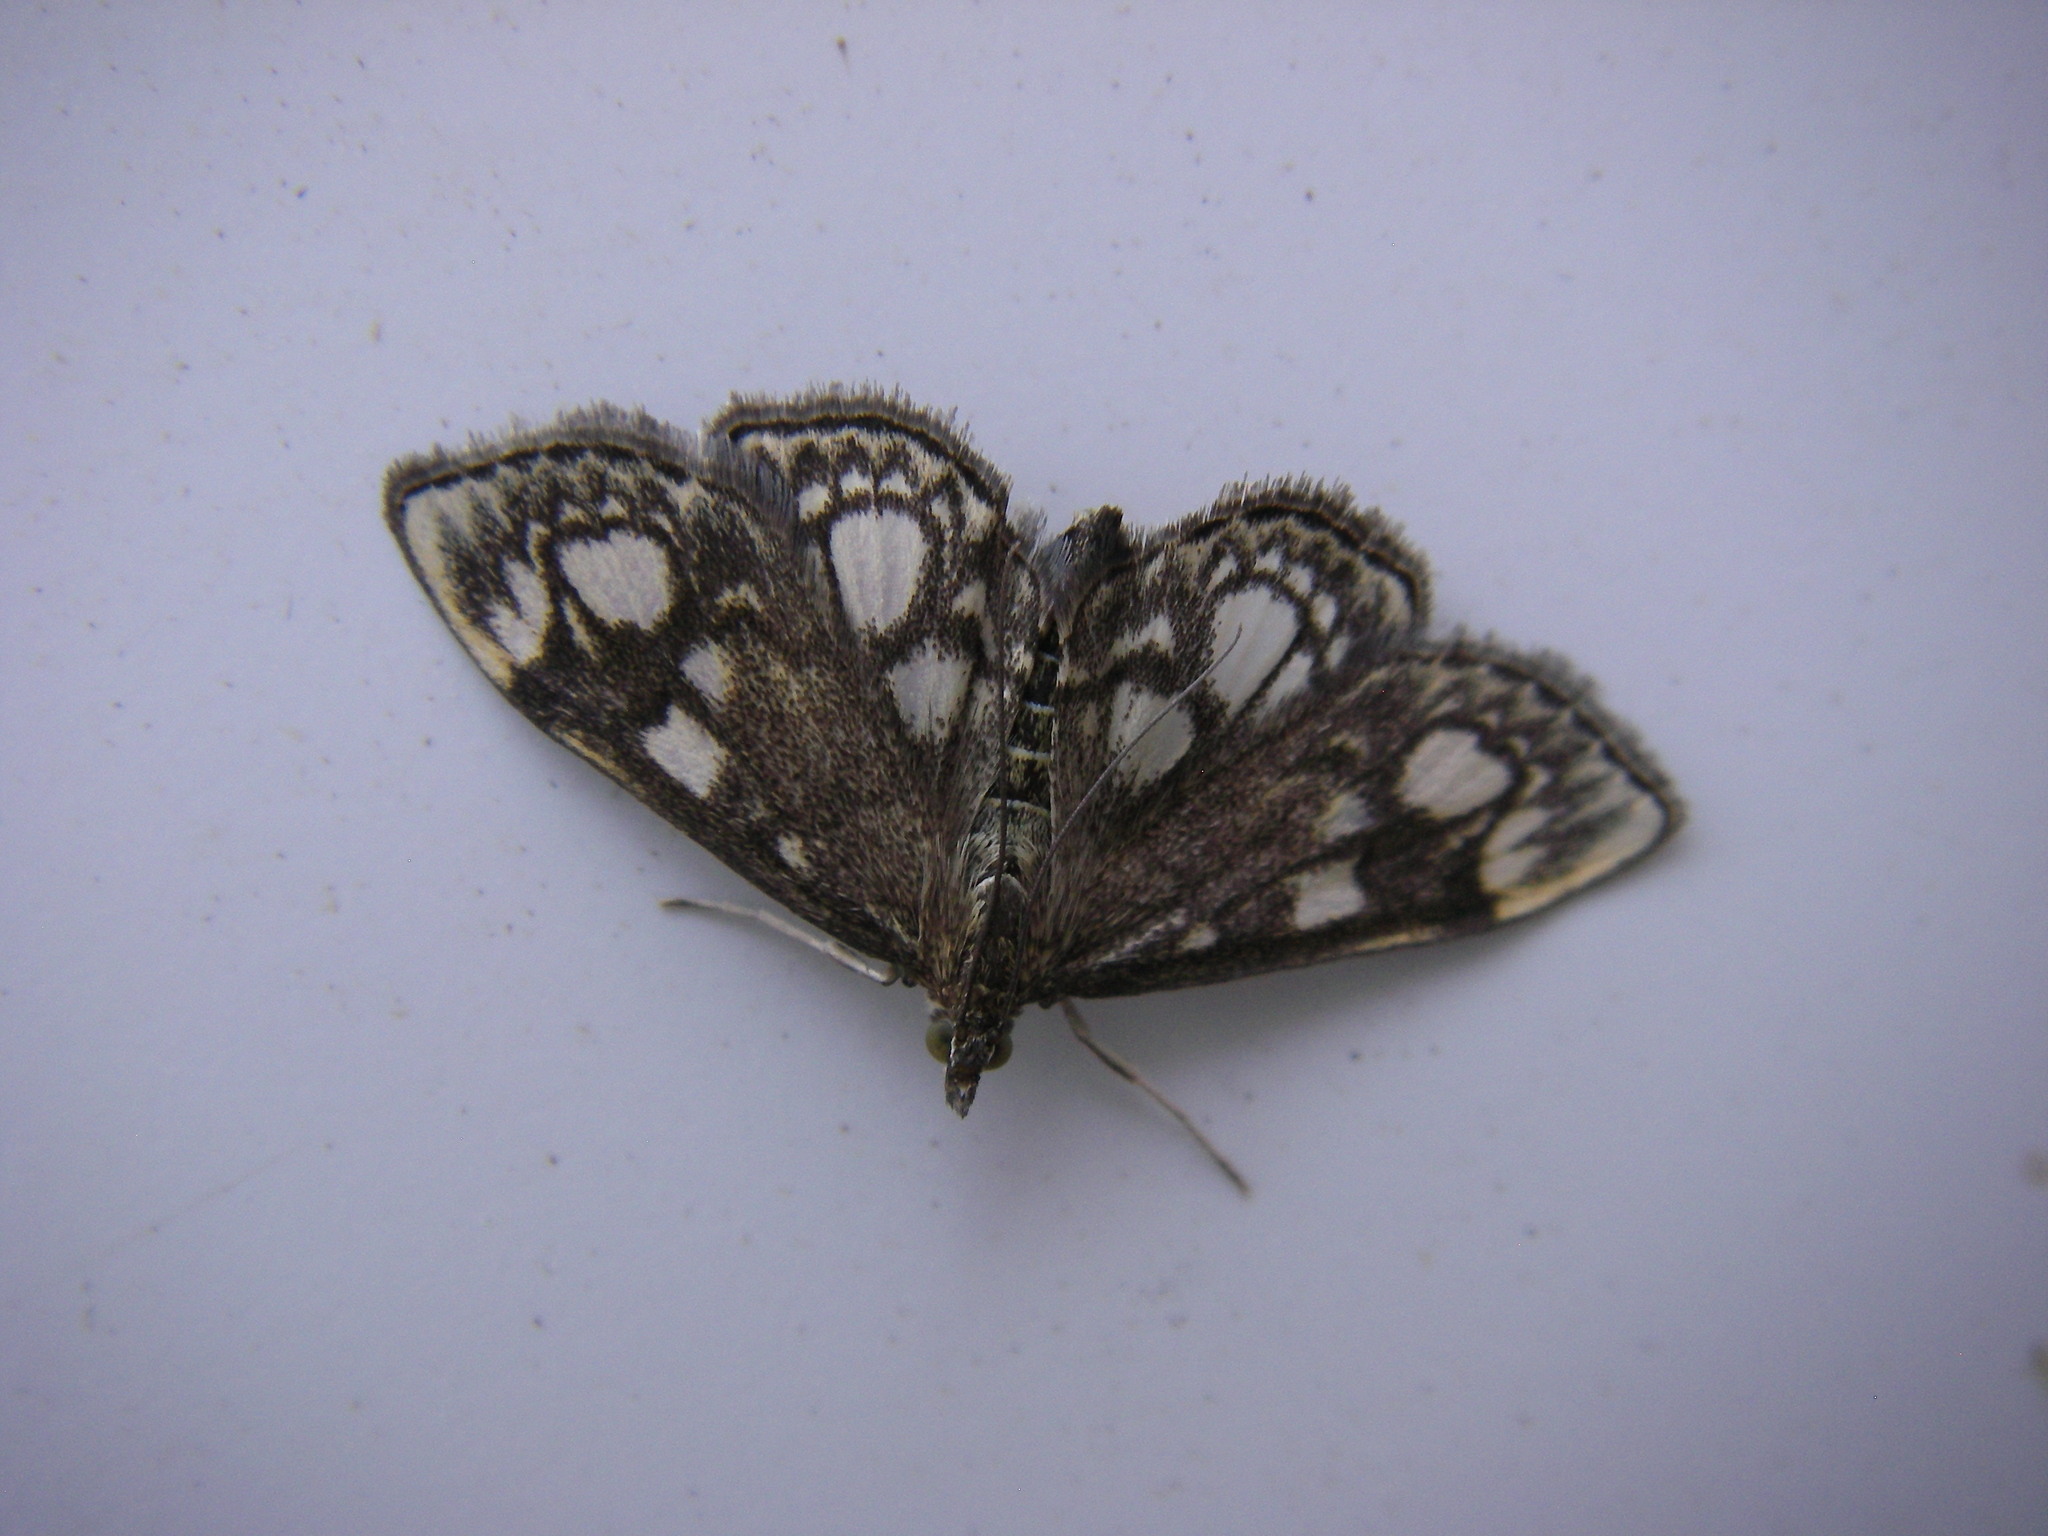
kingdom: Animalia
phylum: Arthropoda
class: Insecta
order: Lepidoptera
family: Crambidae
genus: Anania
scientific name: Anania coronata
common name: Elder pearl
